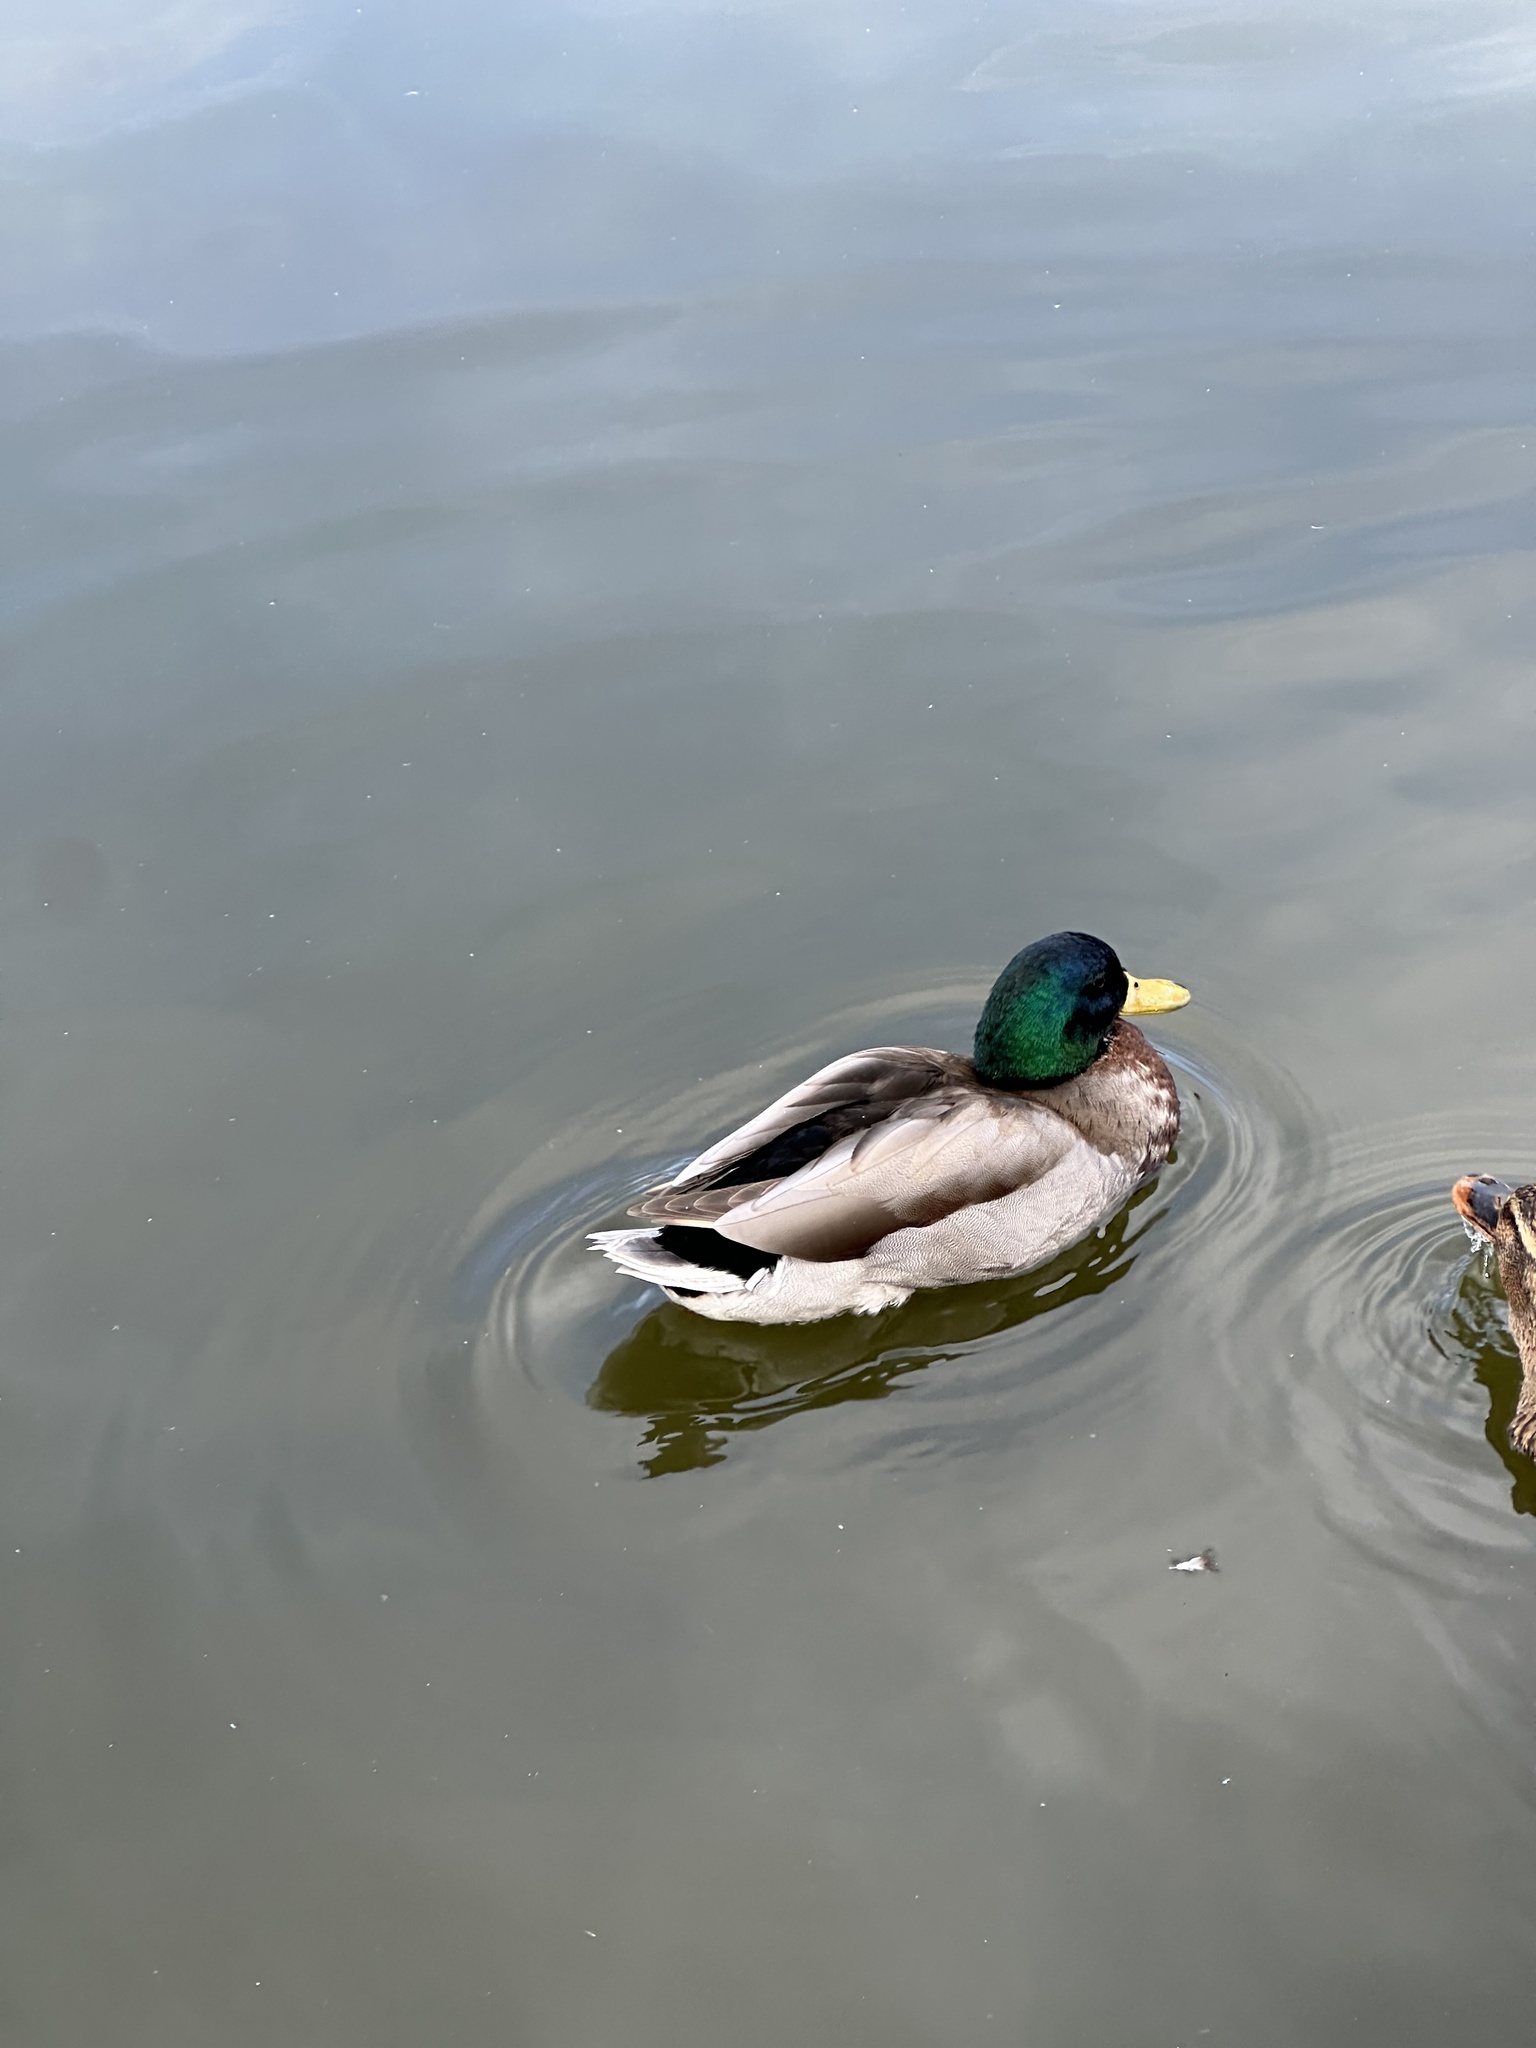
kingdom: Animalia
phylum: Chordata
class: Aves
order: Anseriformes
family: Anatidae
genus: Anas
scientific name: Anas platyrhynchos
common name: Mallard
